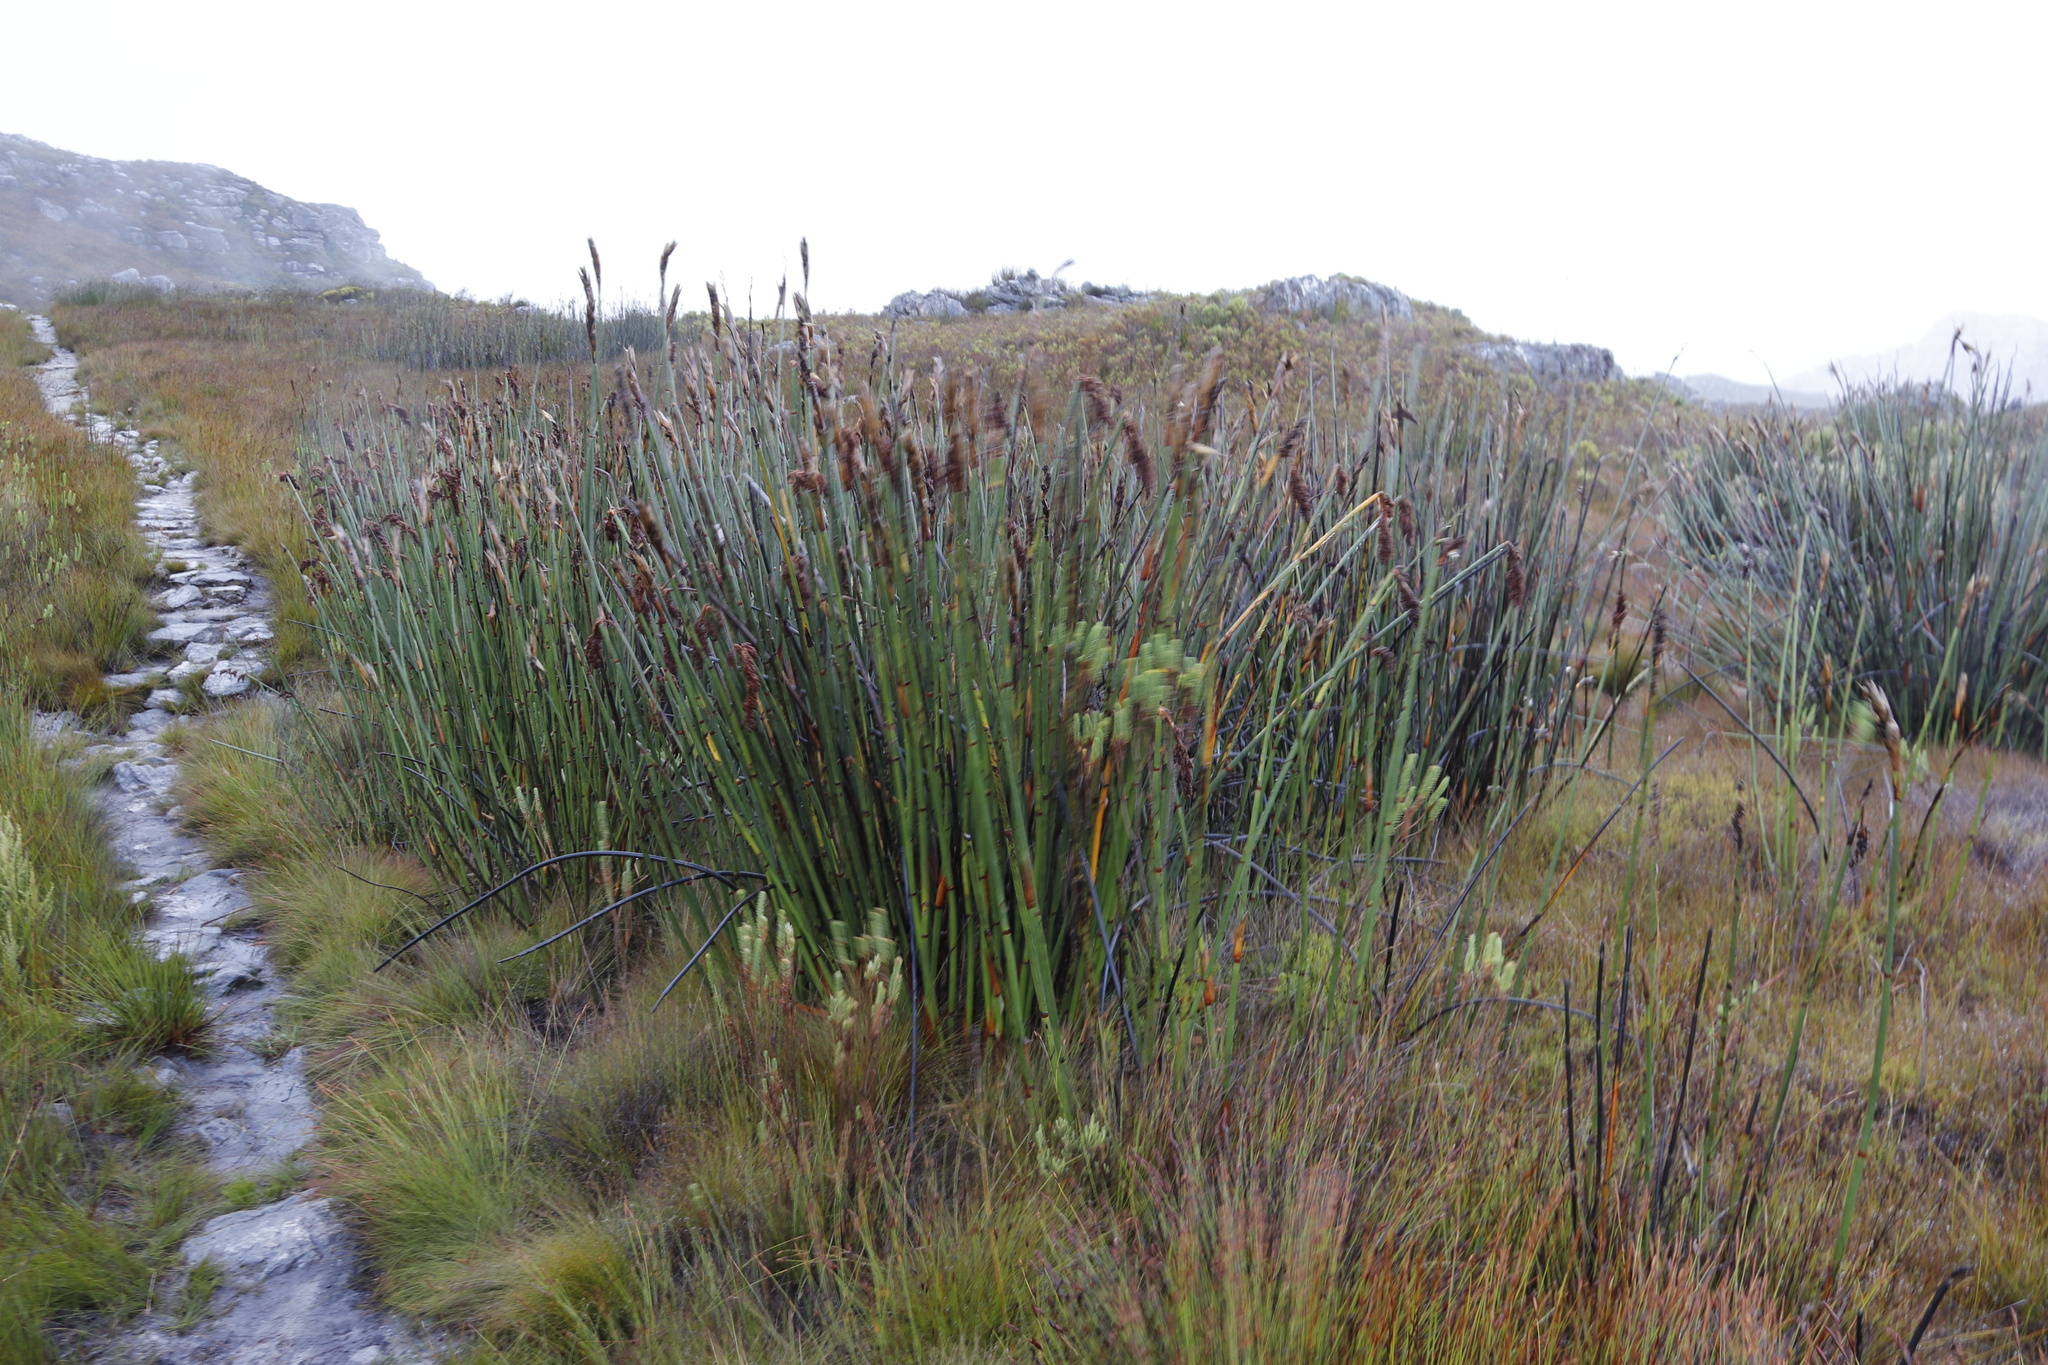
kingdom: Plantae
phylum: Tracheophyta
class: Liliopsida
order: Poales
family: Restionaceae
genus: Elegia
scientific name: Elegia mucronata
